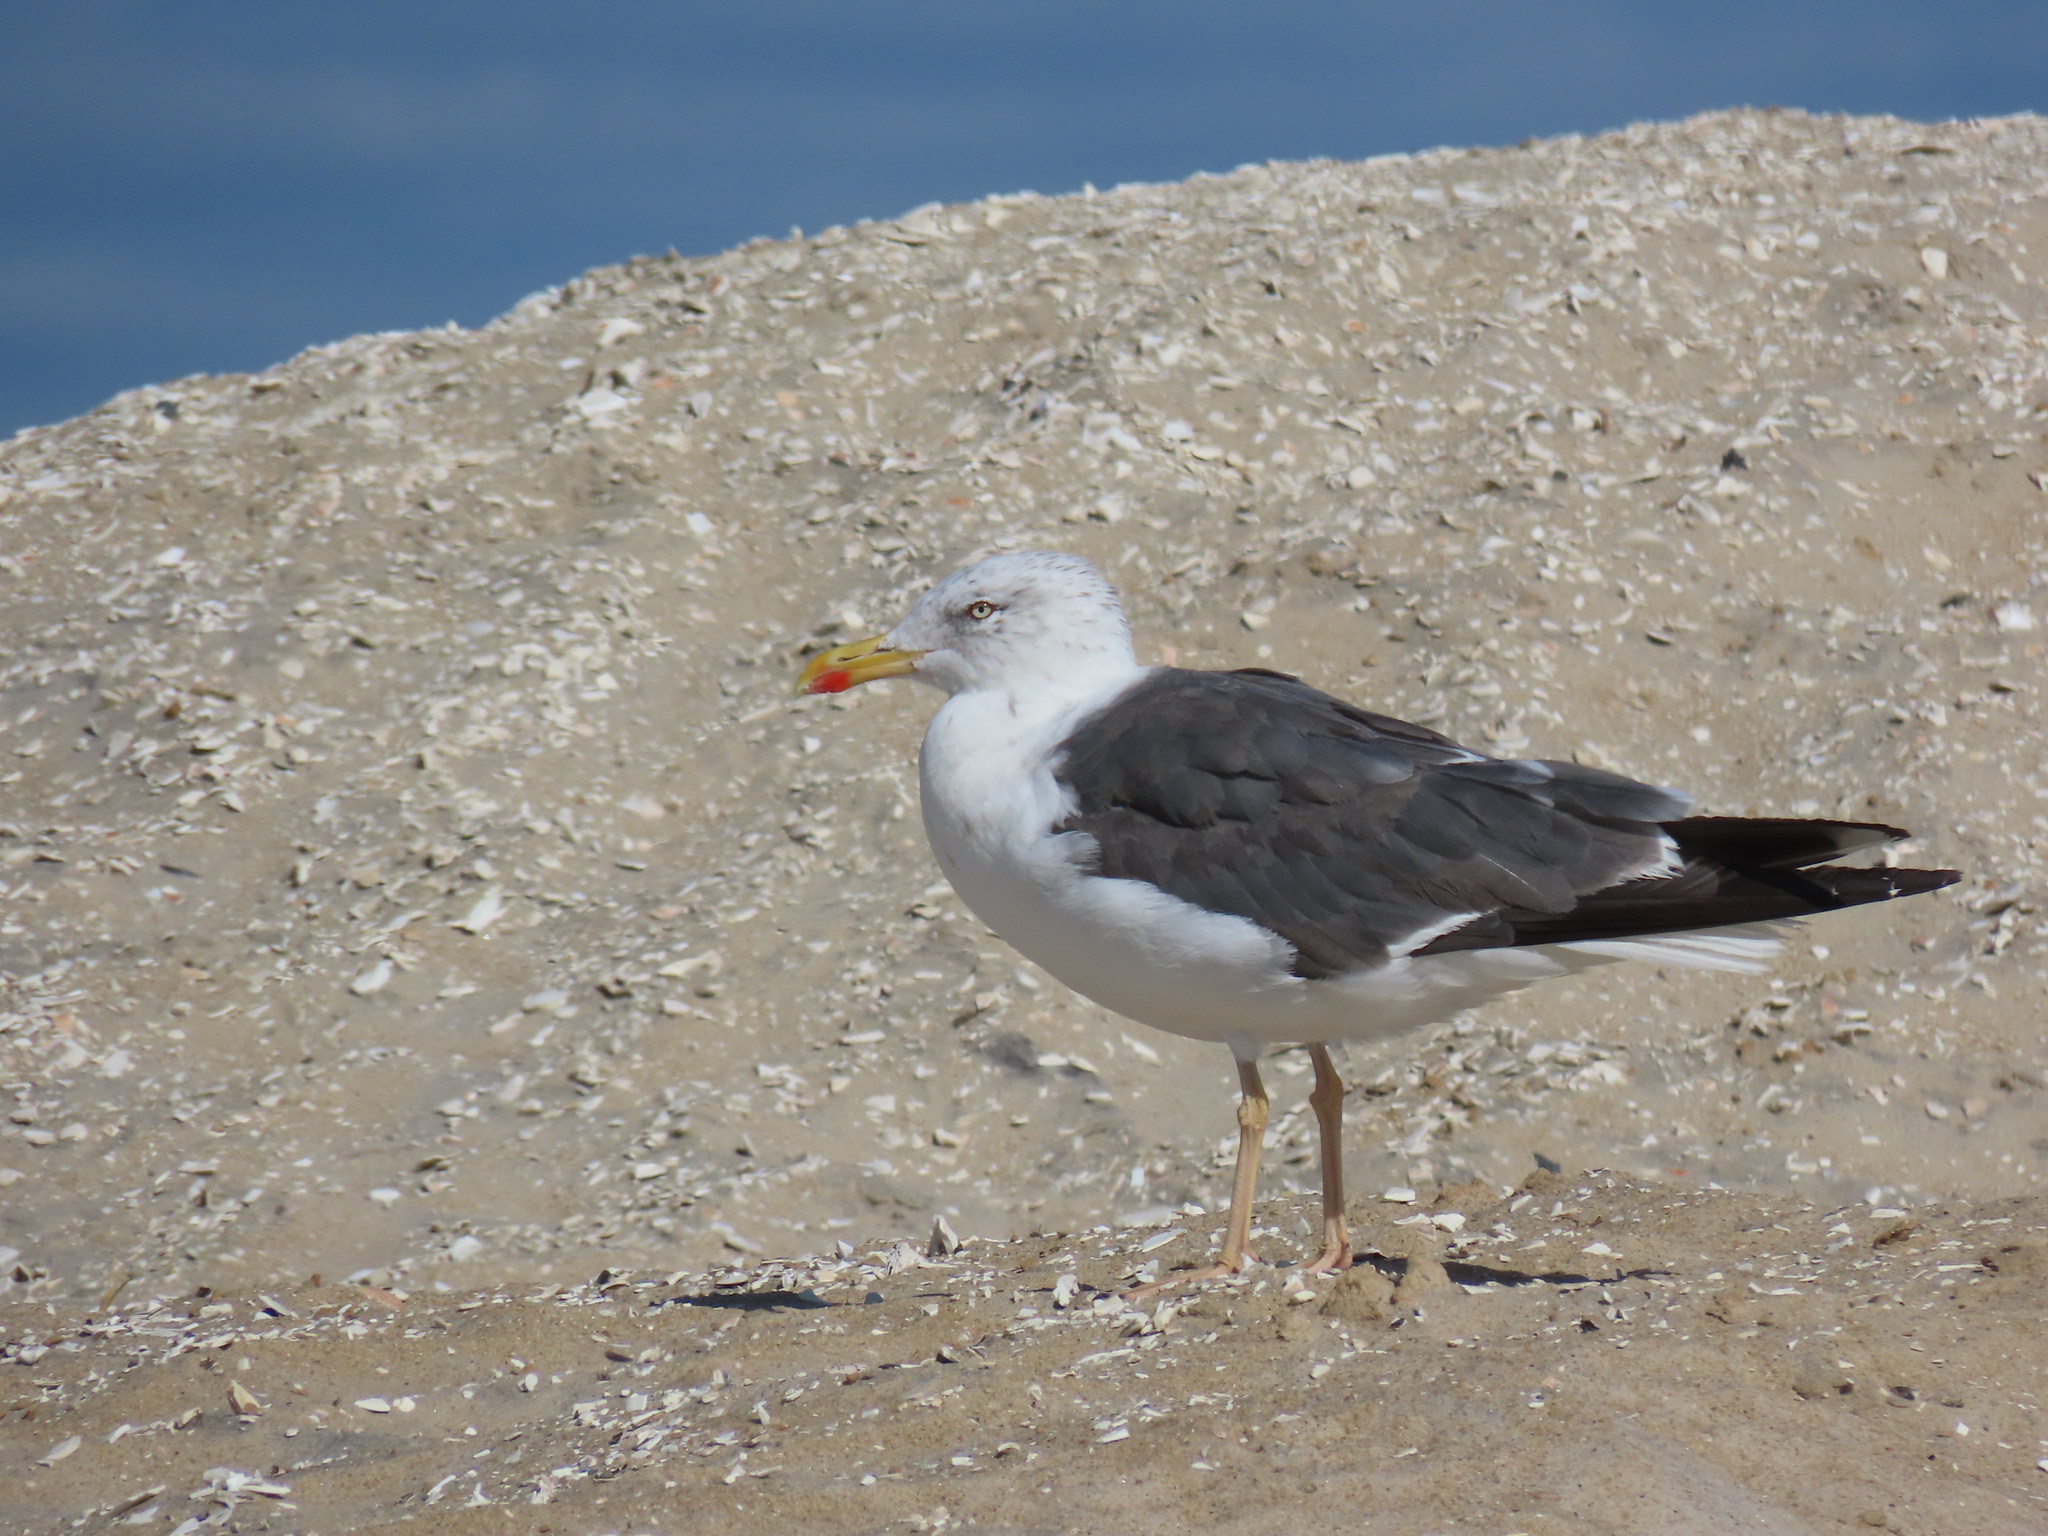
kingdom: Animalia
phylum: Chordata
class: Aves
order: Charadriiformes
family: Laridae
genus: Larus
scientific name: Larus fuscus
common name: Lesser black-backed gull
